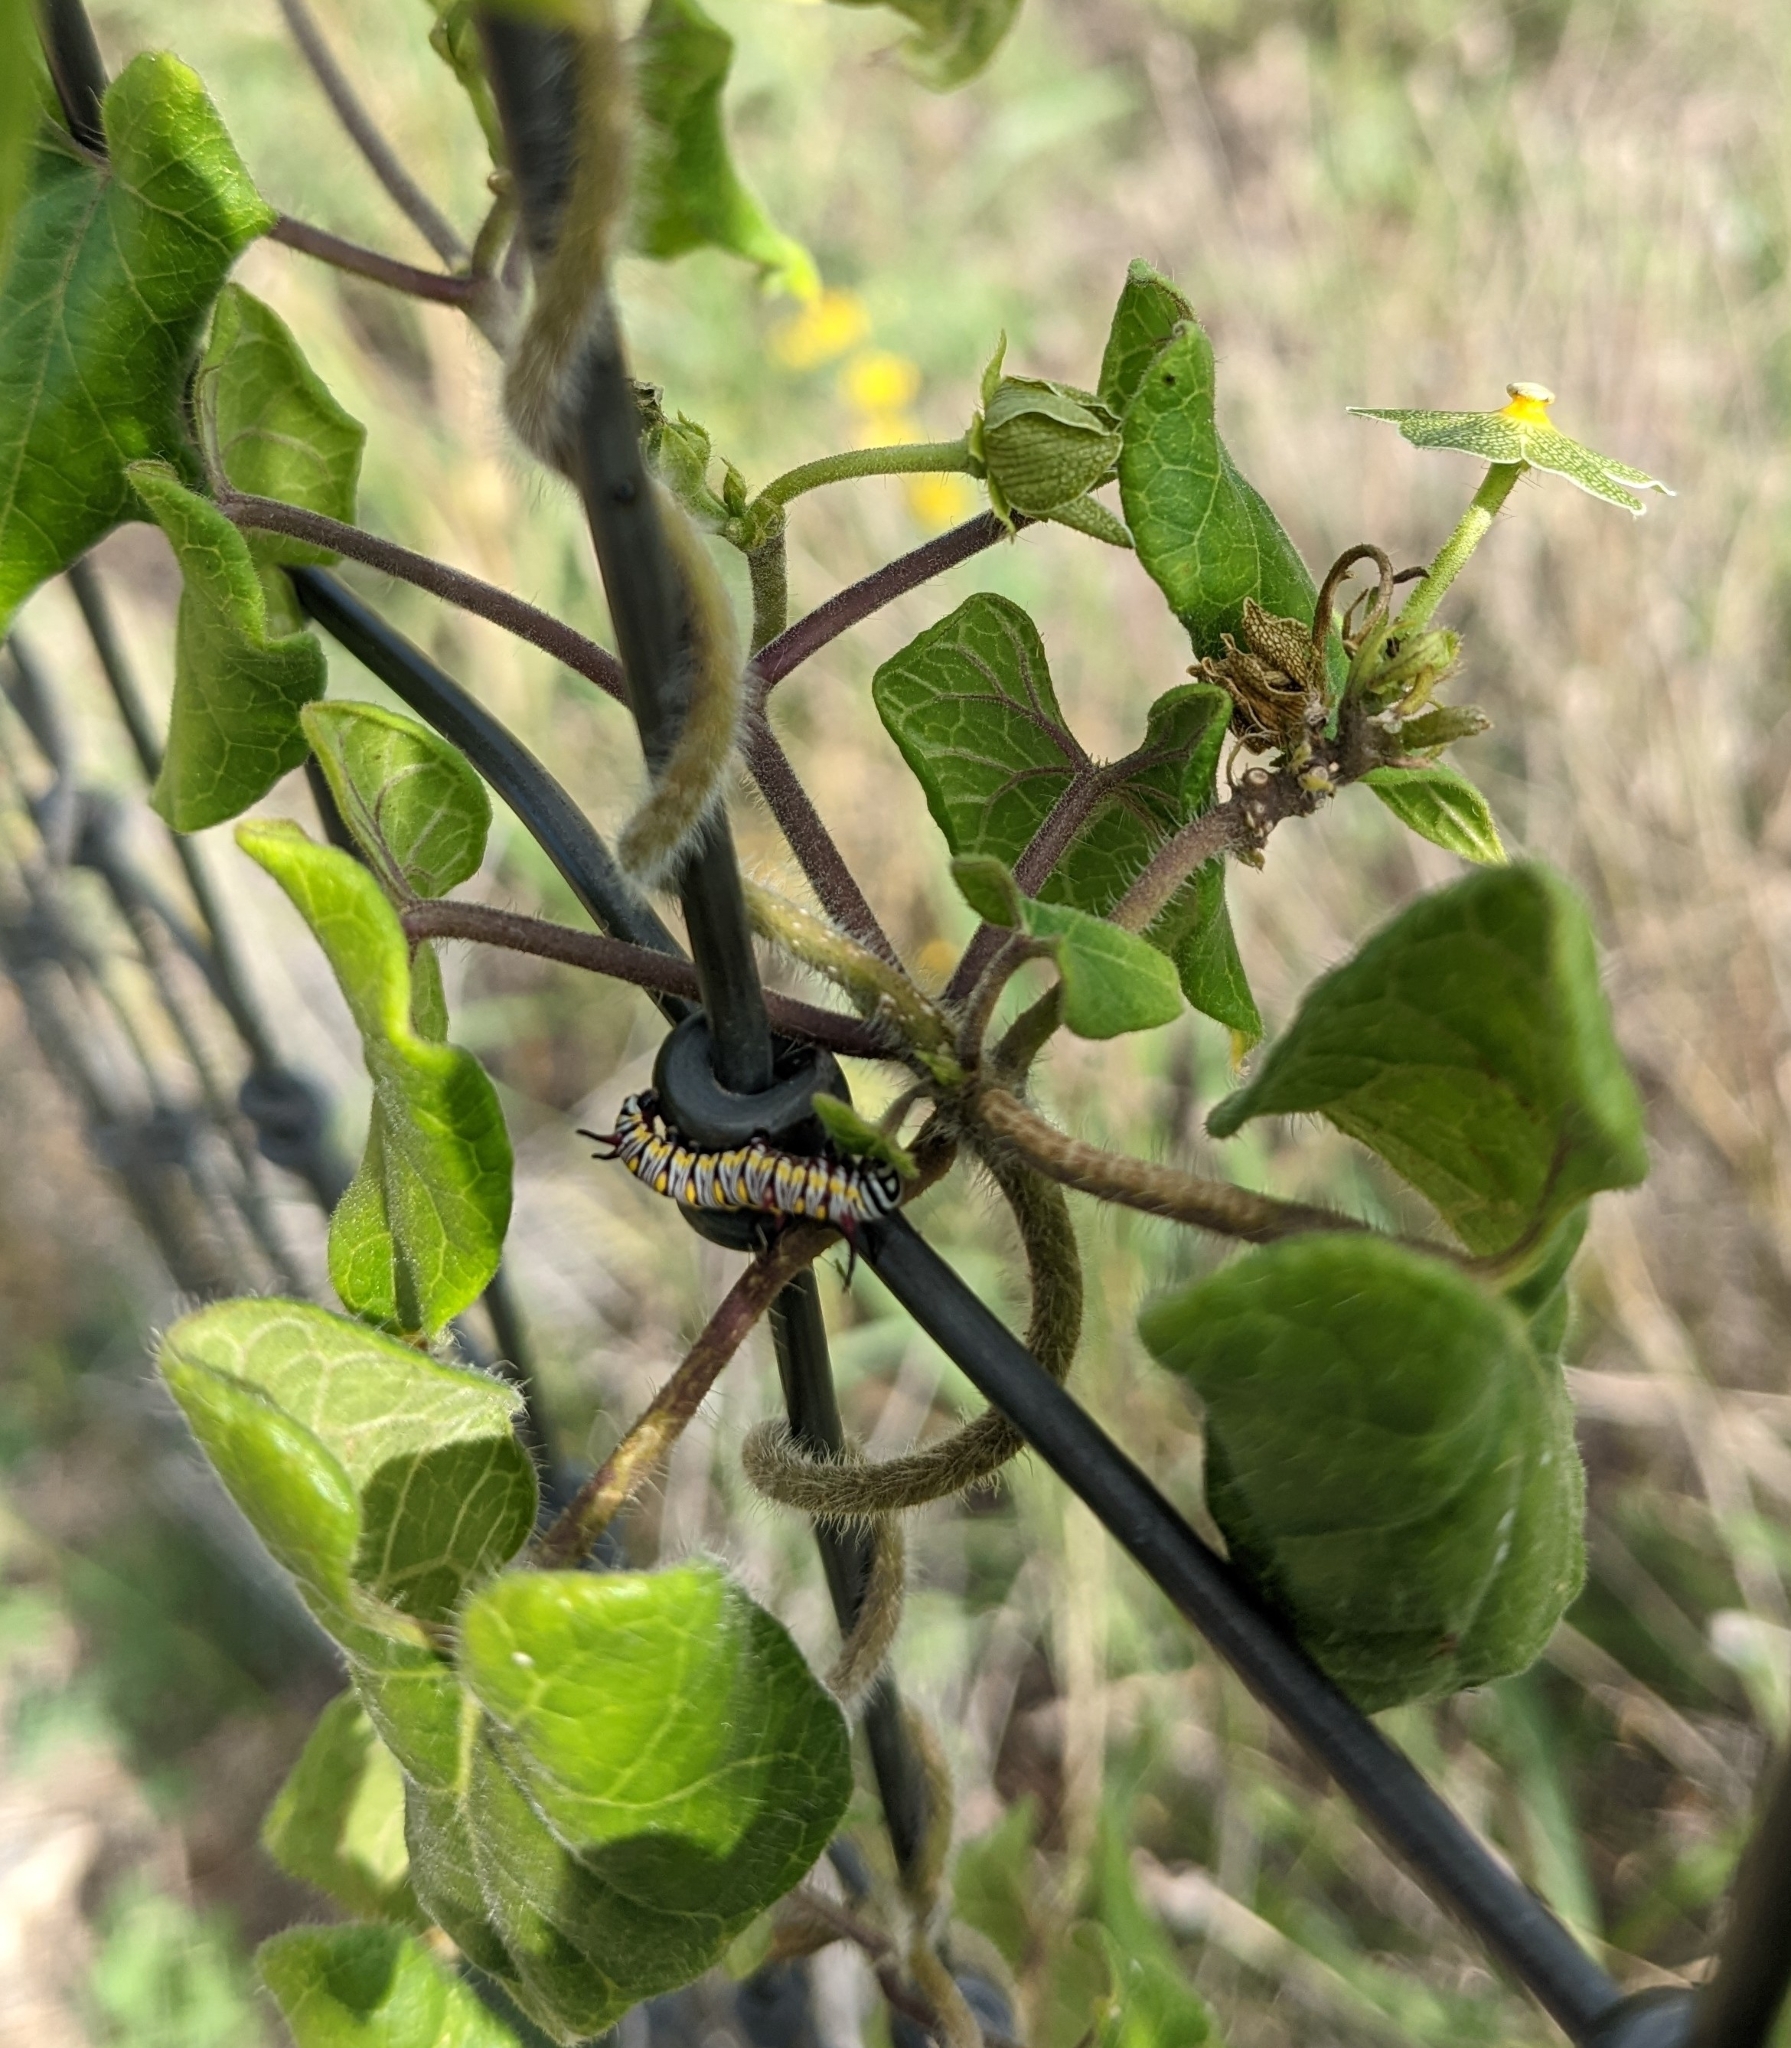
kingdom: Animalia
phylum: Arthropoda
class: Insecta
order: Lepidoptera
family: Nymphalidae
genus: Danaus
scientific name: Danaus gilippus
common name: Queen
